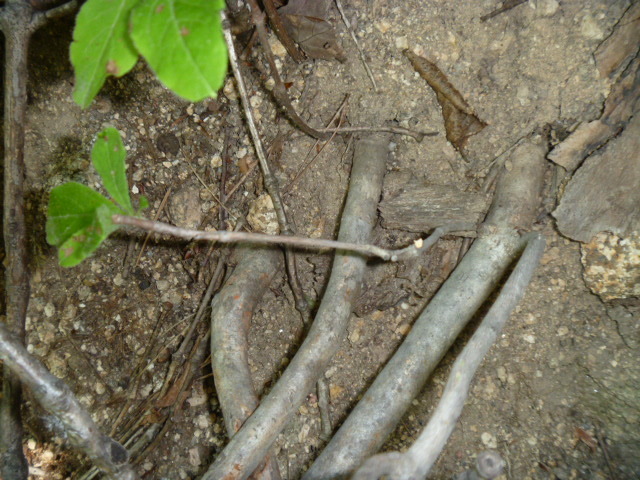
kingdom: Plantae
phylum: Tracheophyta
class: Magnoliopsida
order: Ericales
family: Ericaceae
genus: Rhododendron
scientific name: Rhododendron schlippenbachii
